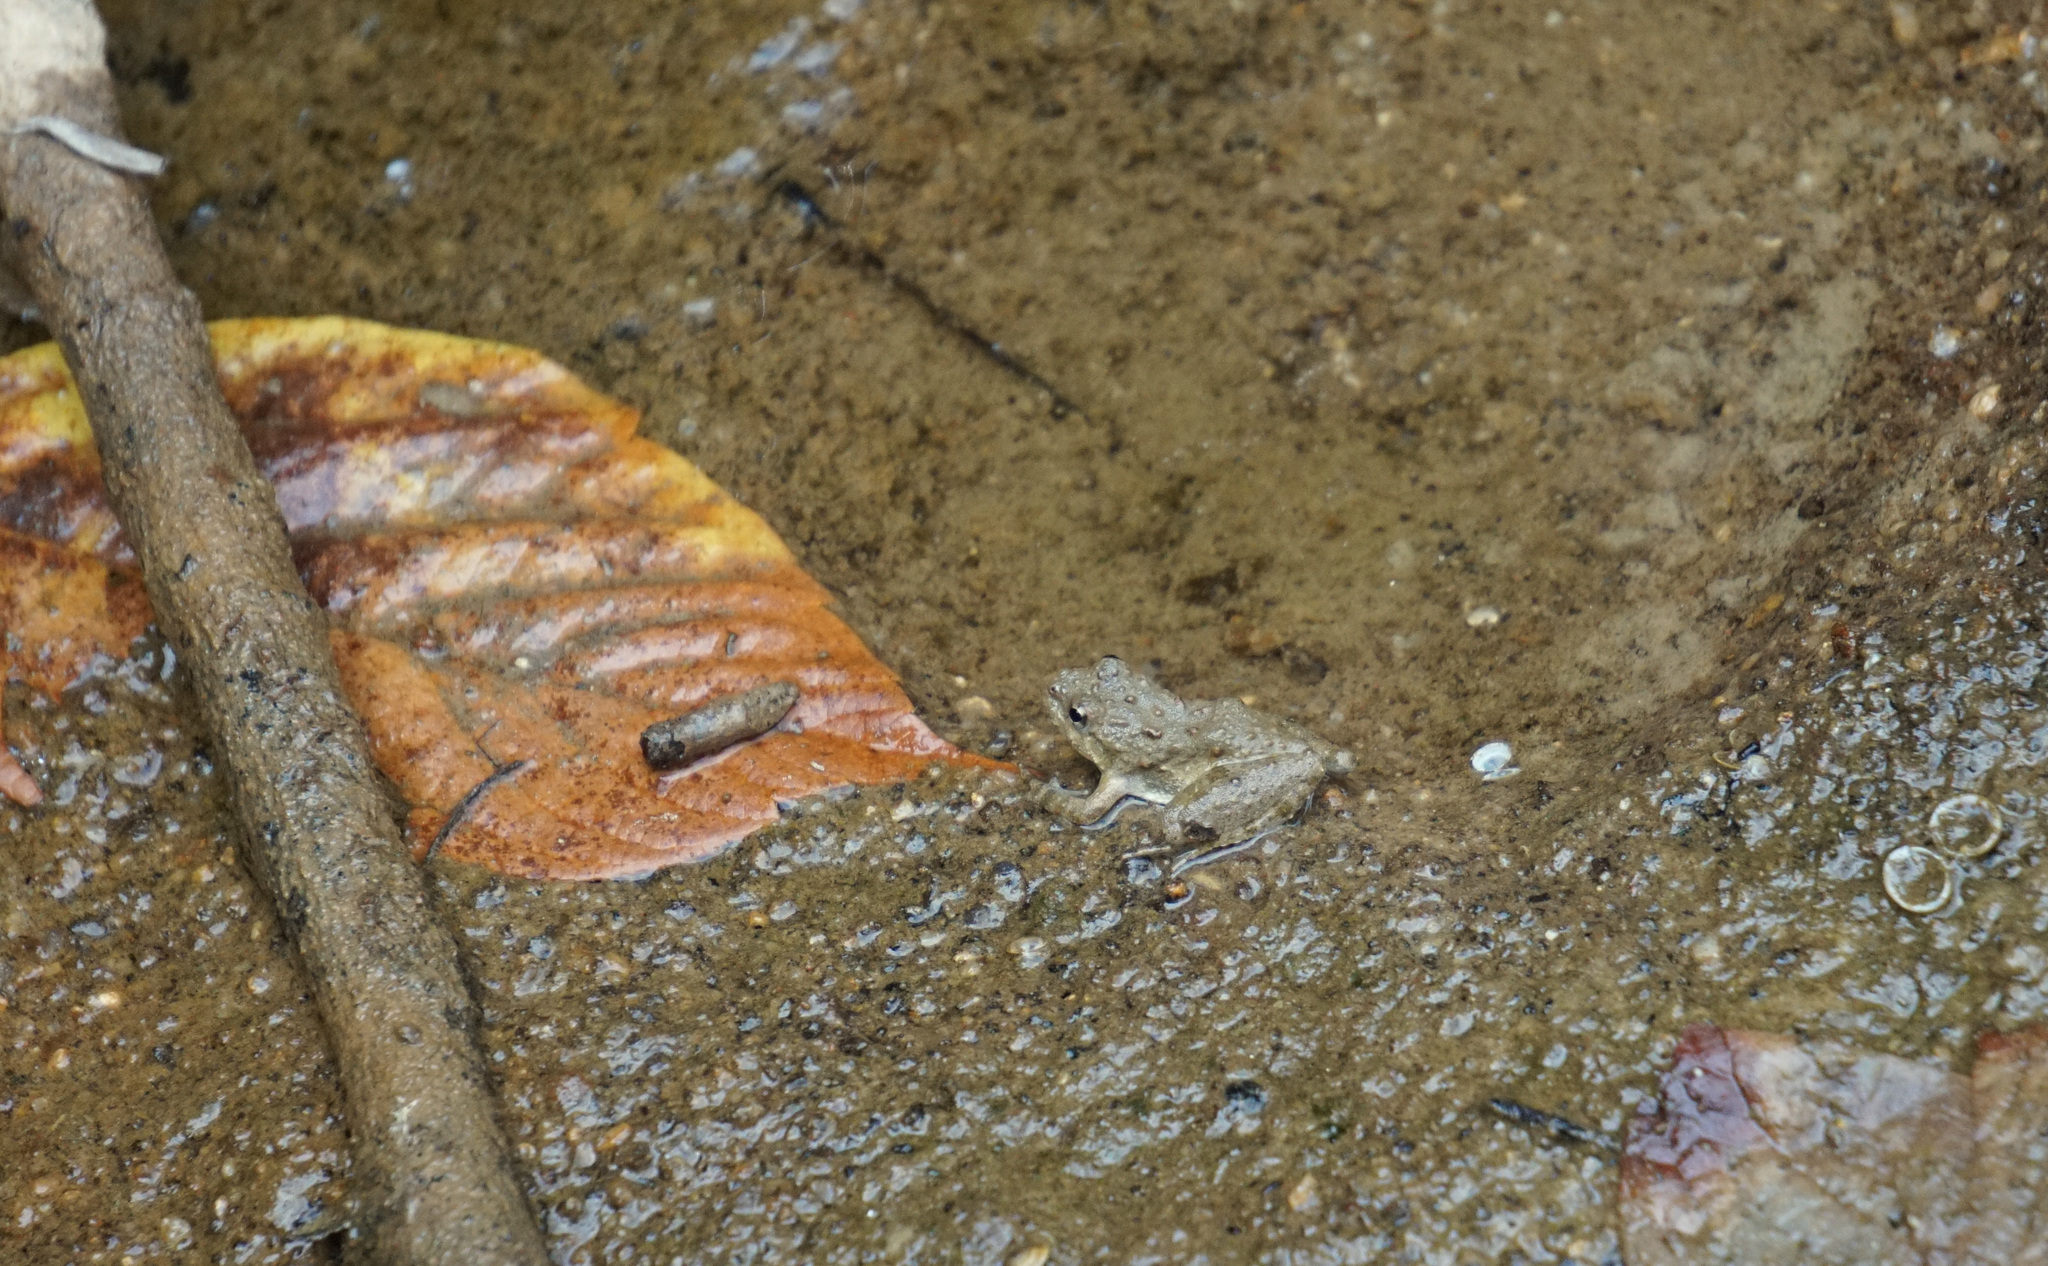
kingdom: Animalia
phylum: Chordata
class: Amphibia
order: Anura
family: Hylidae
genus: Acris
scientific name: Acris crepitans
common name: Northern cricket frog
